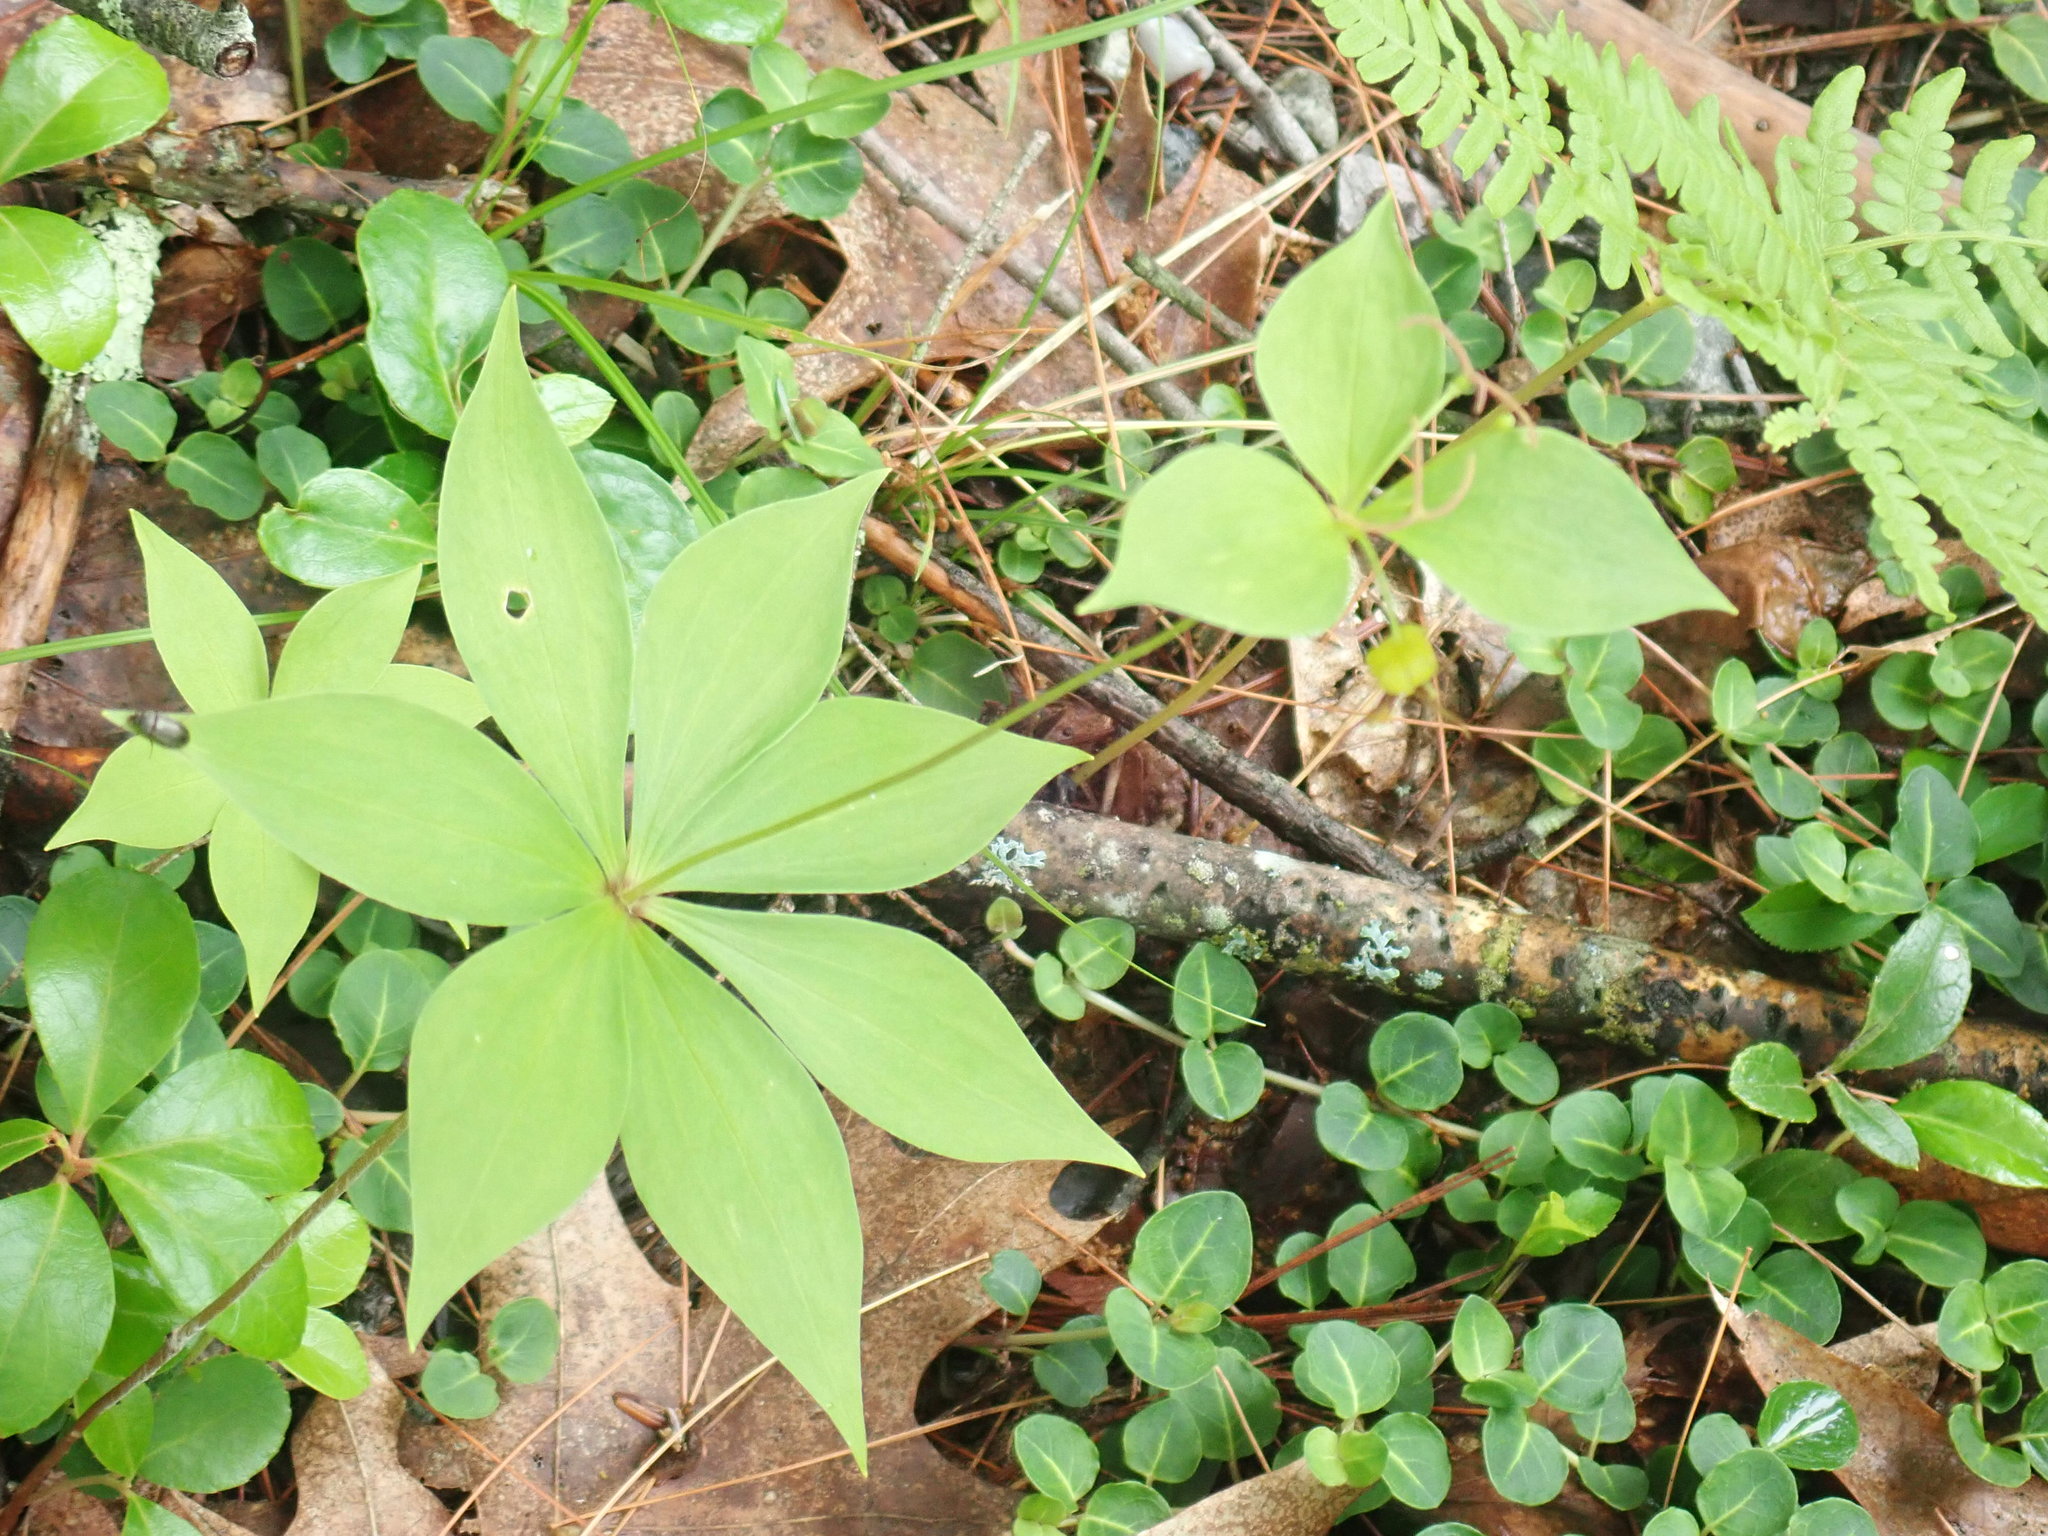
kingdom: Plantae
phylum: Tracheophyta
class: Liliopsida
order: Liliales
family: Liliaceae
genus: Medeola
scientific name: Medeola virginiana
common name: Indian cucumber-root
